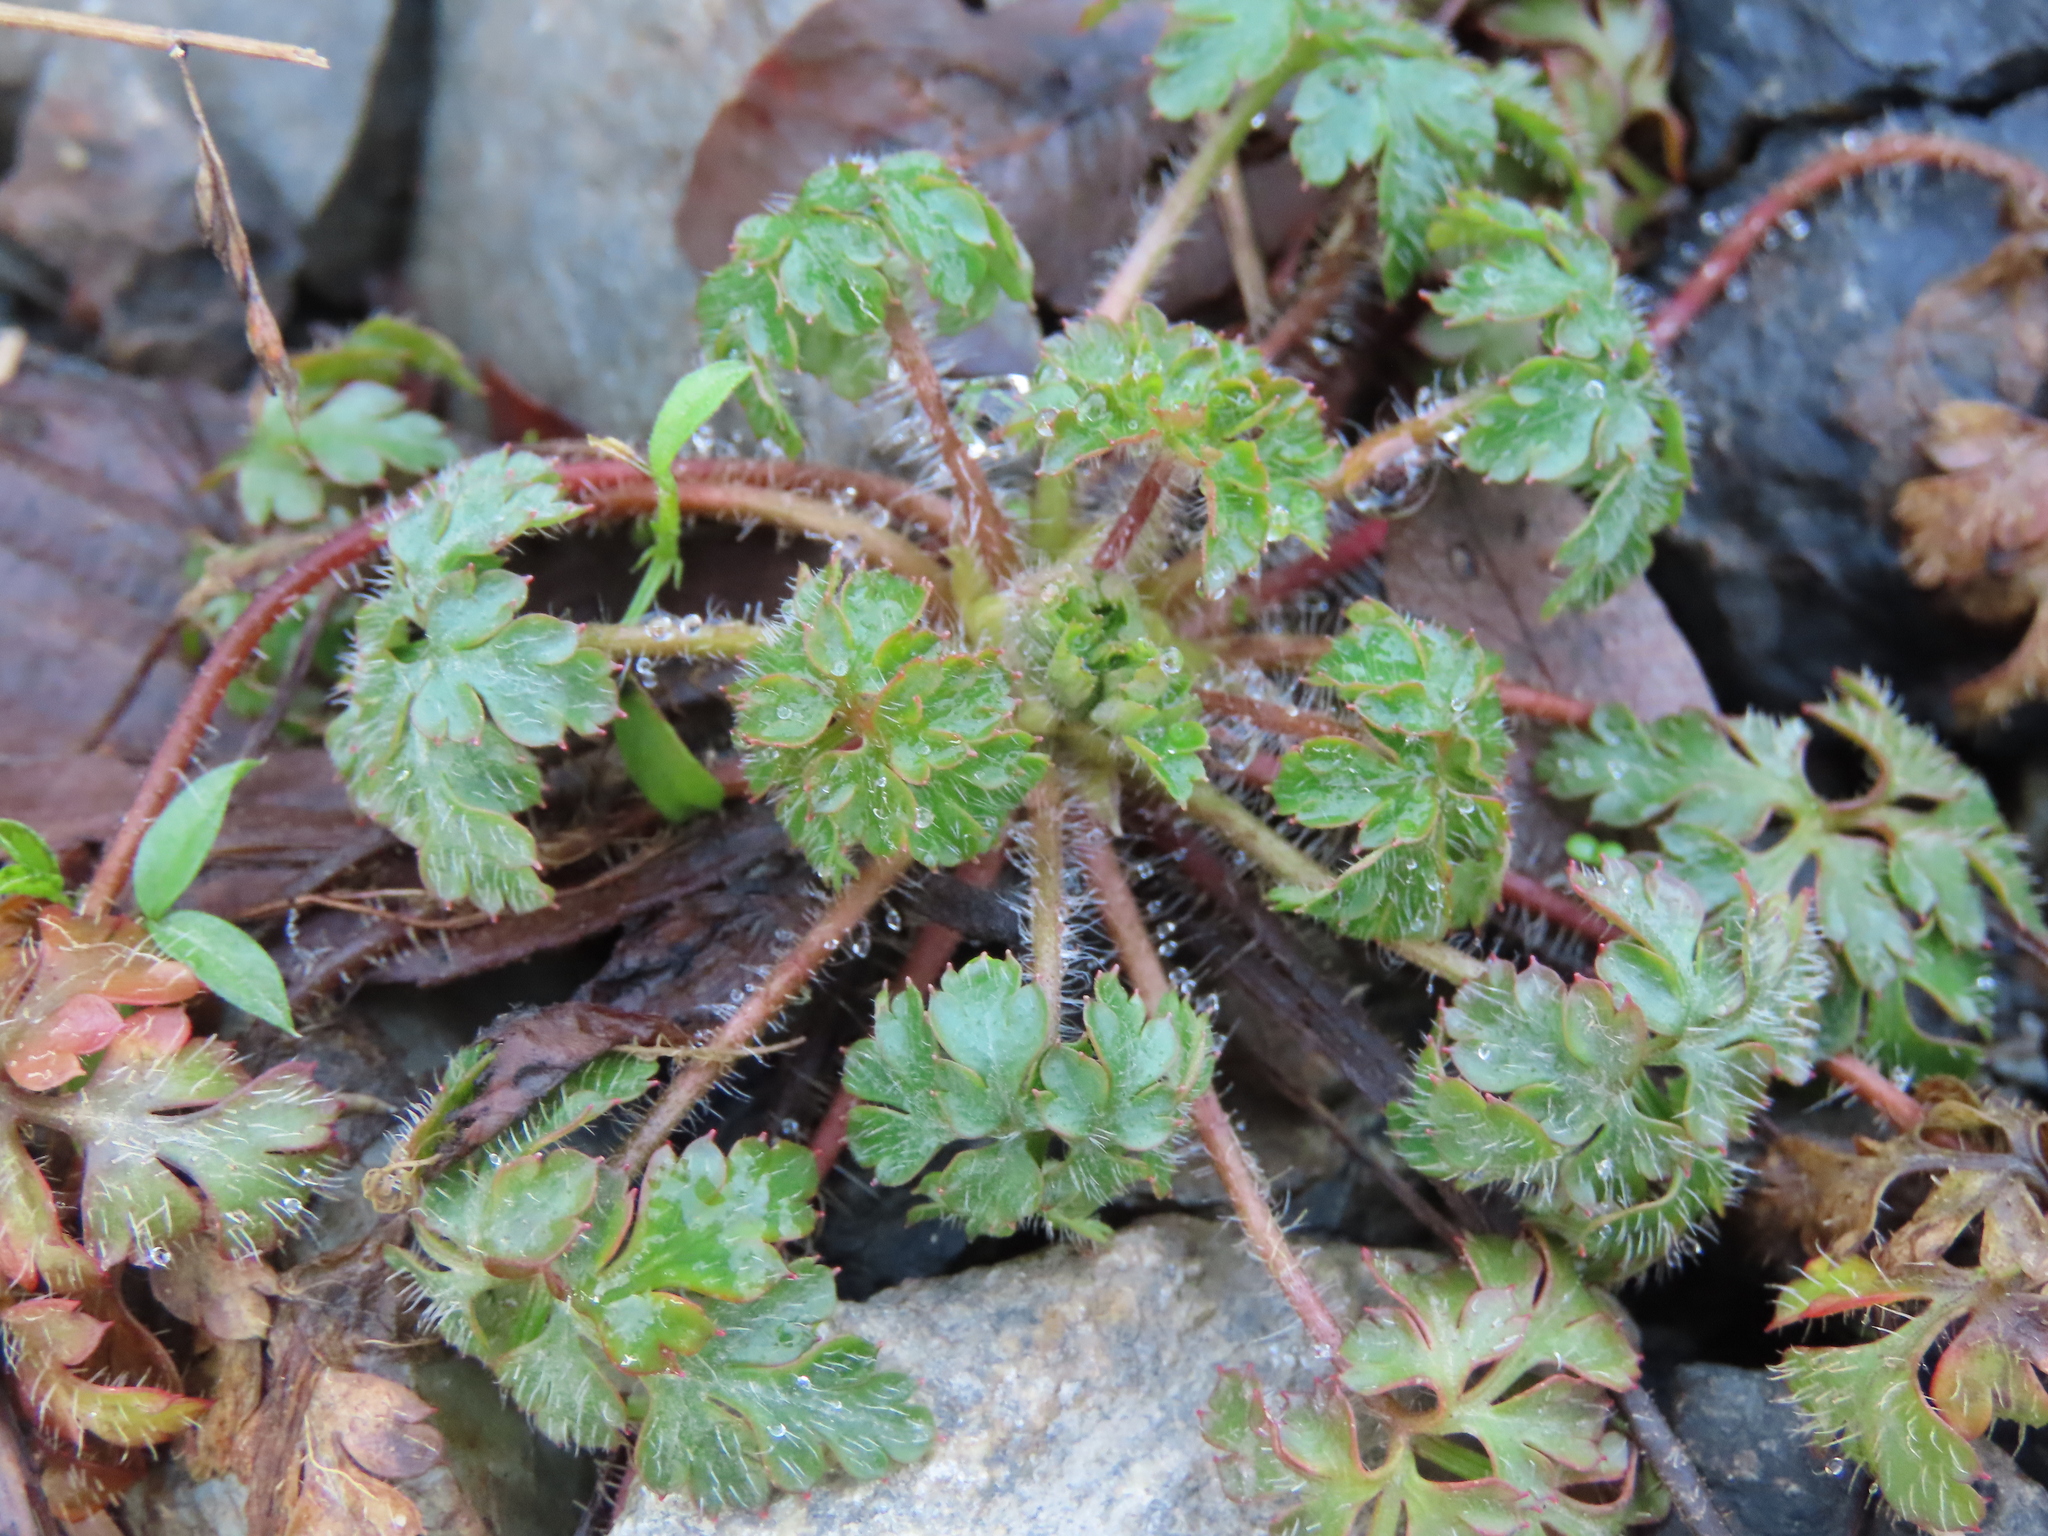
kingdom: Plantae
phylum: Tracheophyta
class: Magnoliopsida
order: Geraniales
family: Geraniaceae
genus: Geranium
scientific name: Geranium robertianum
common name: Herb-robert
